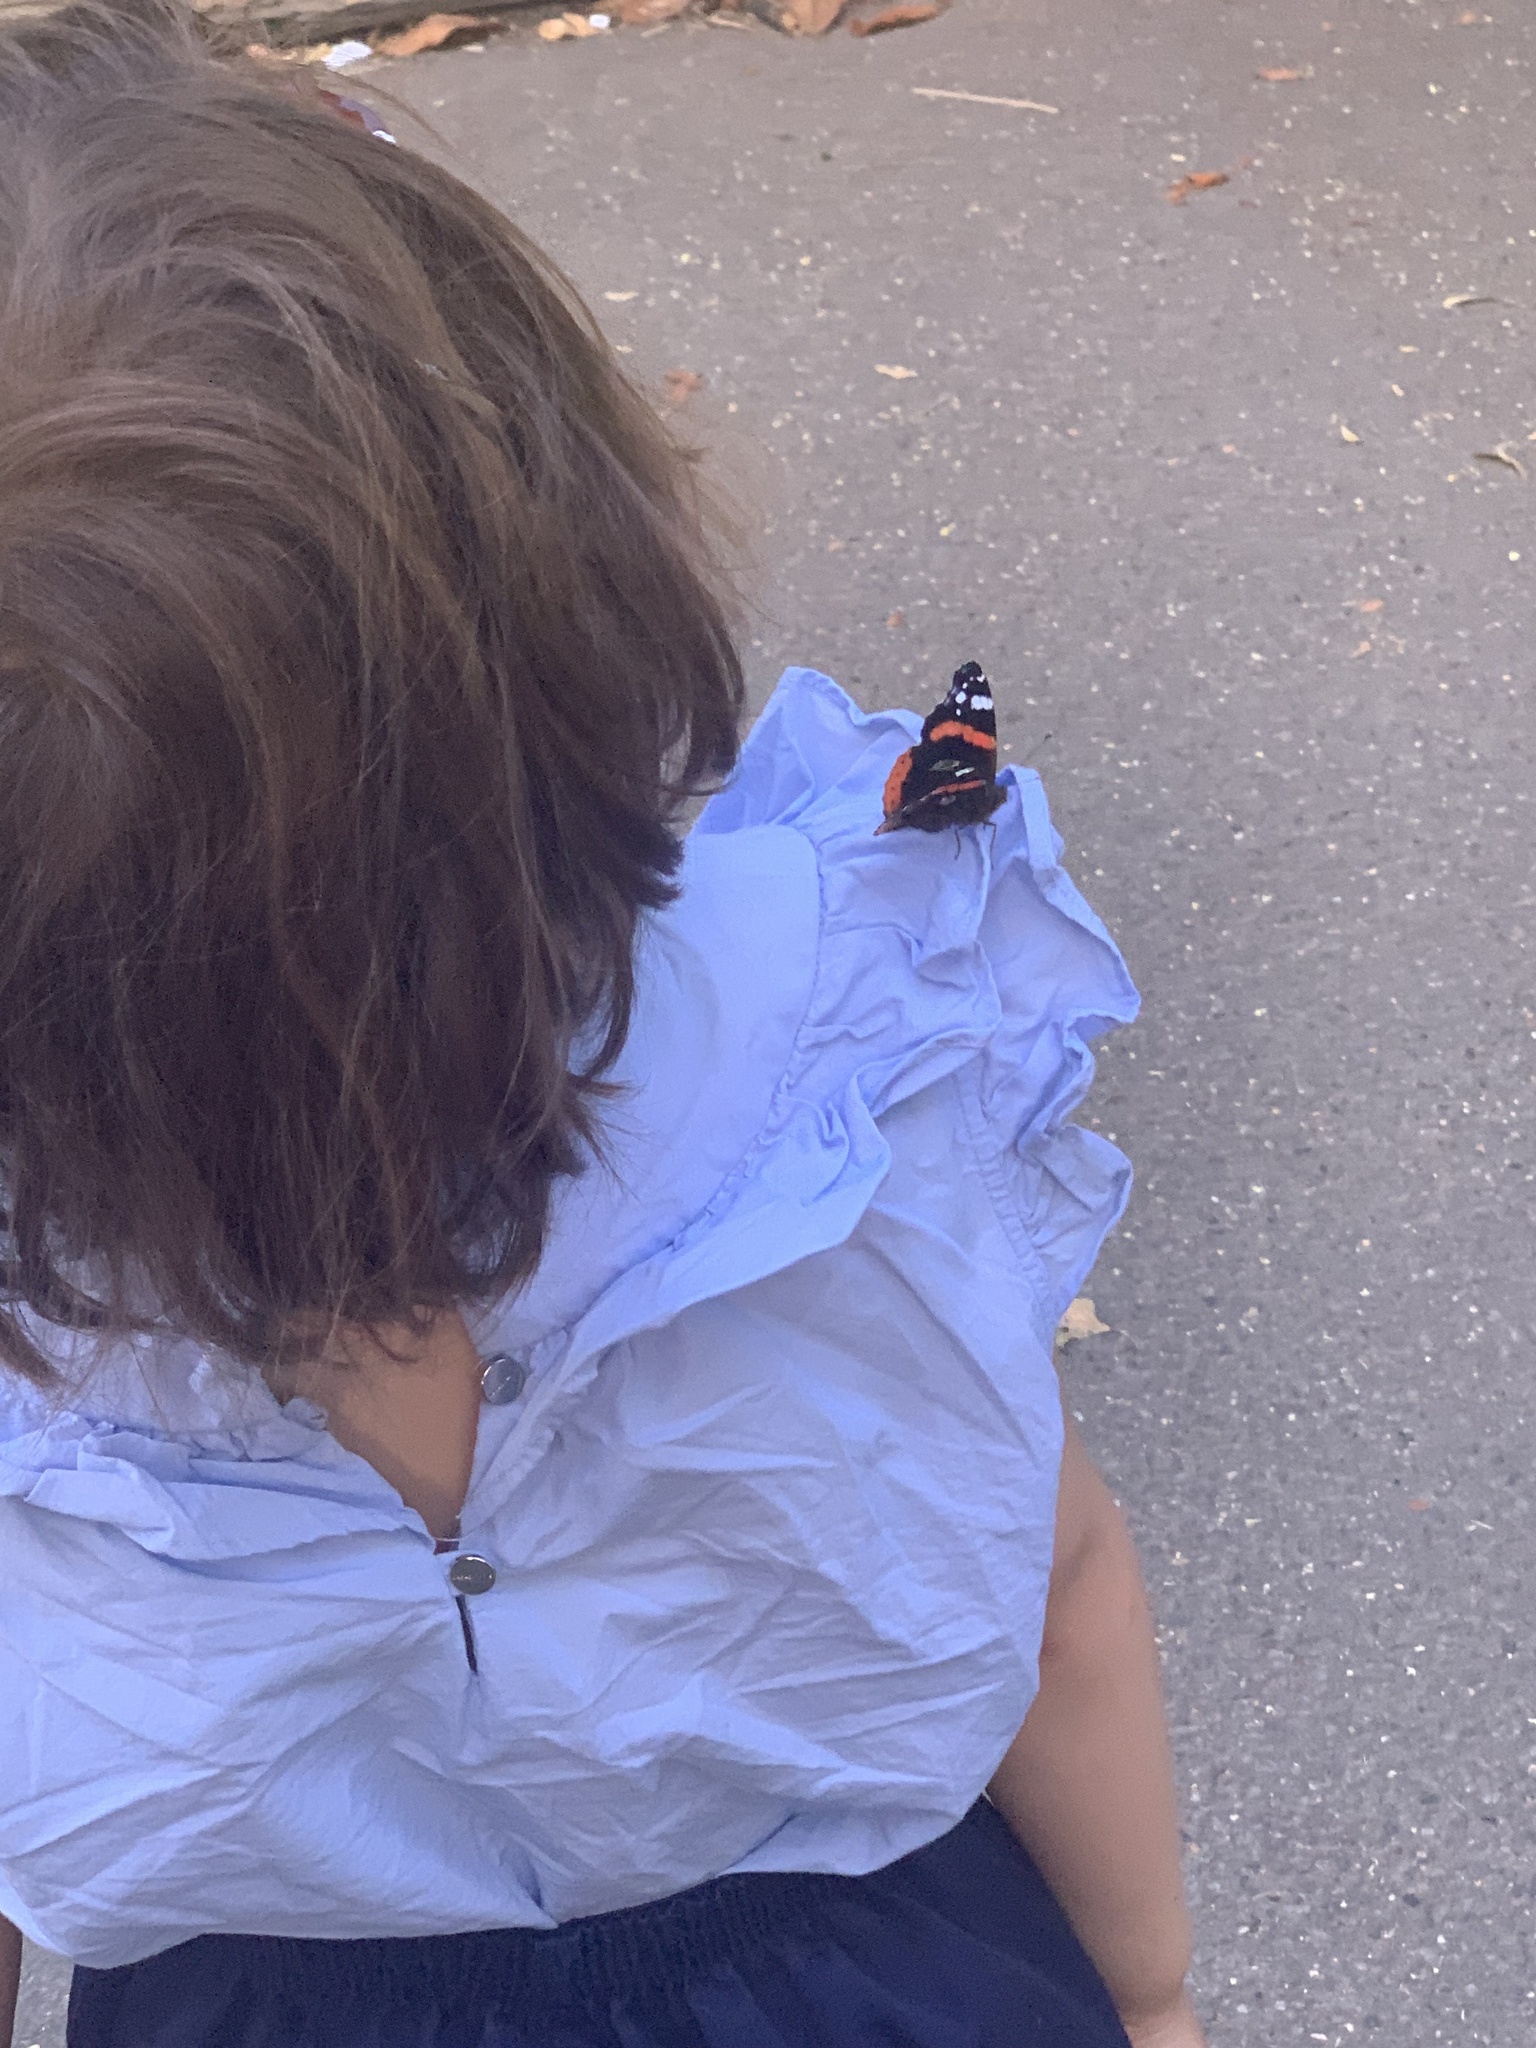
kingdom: Animalia
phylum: Arthropoda
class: Insecta
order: Lepidoptera
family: Nymphalidae
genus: Vanessa
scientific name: Vanessa atalanta
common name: Red admiral
